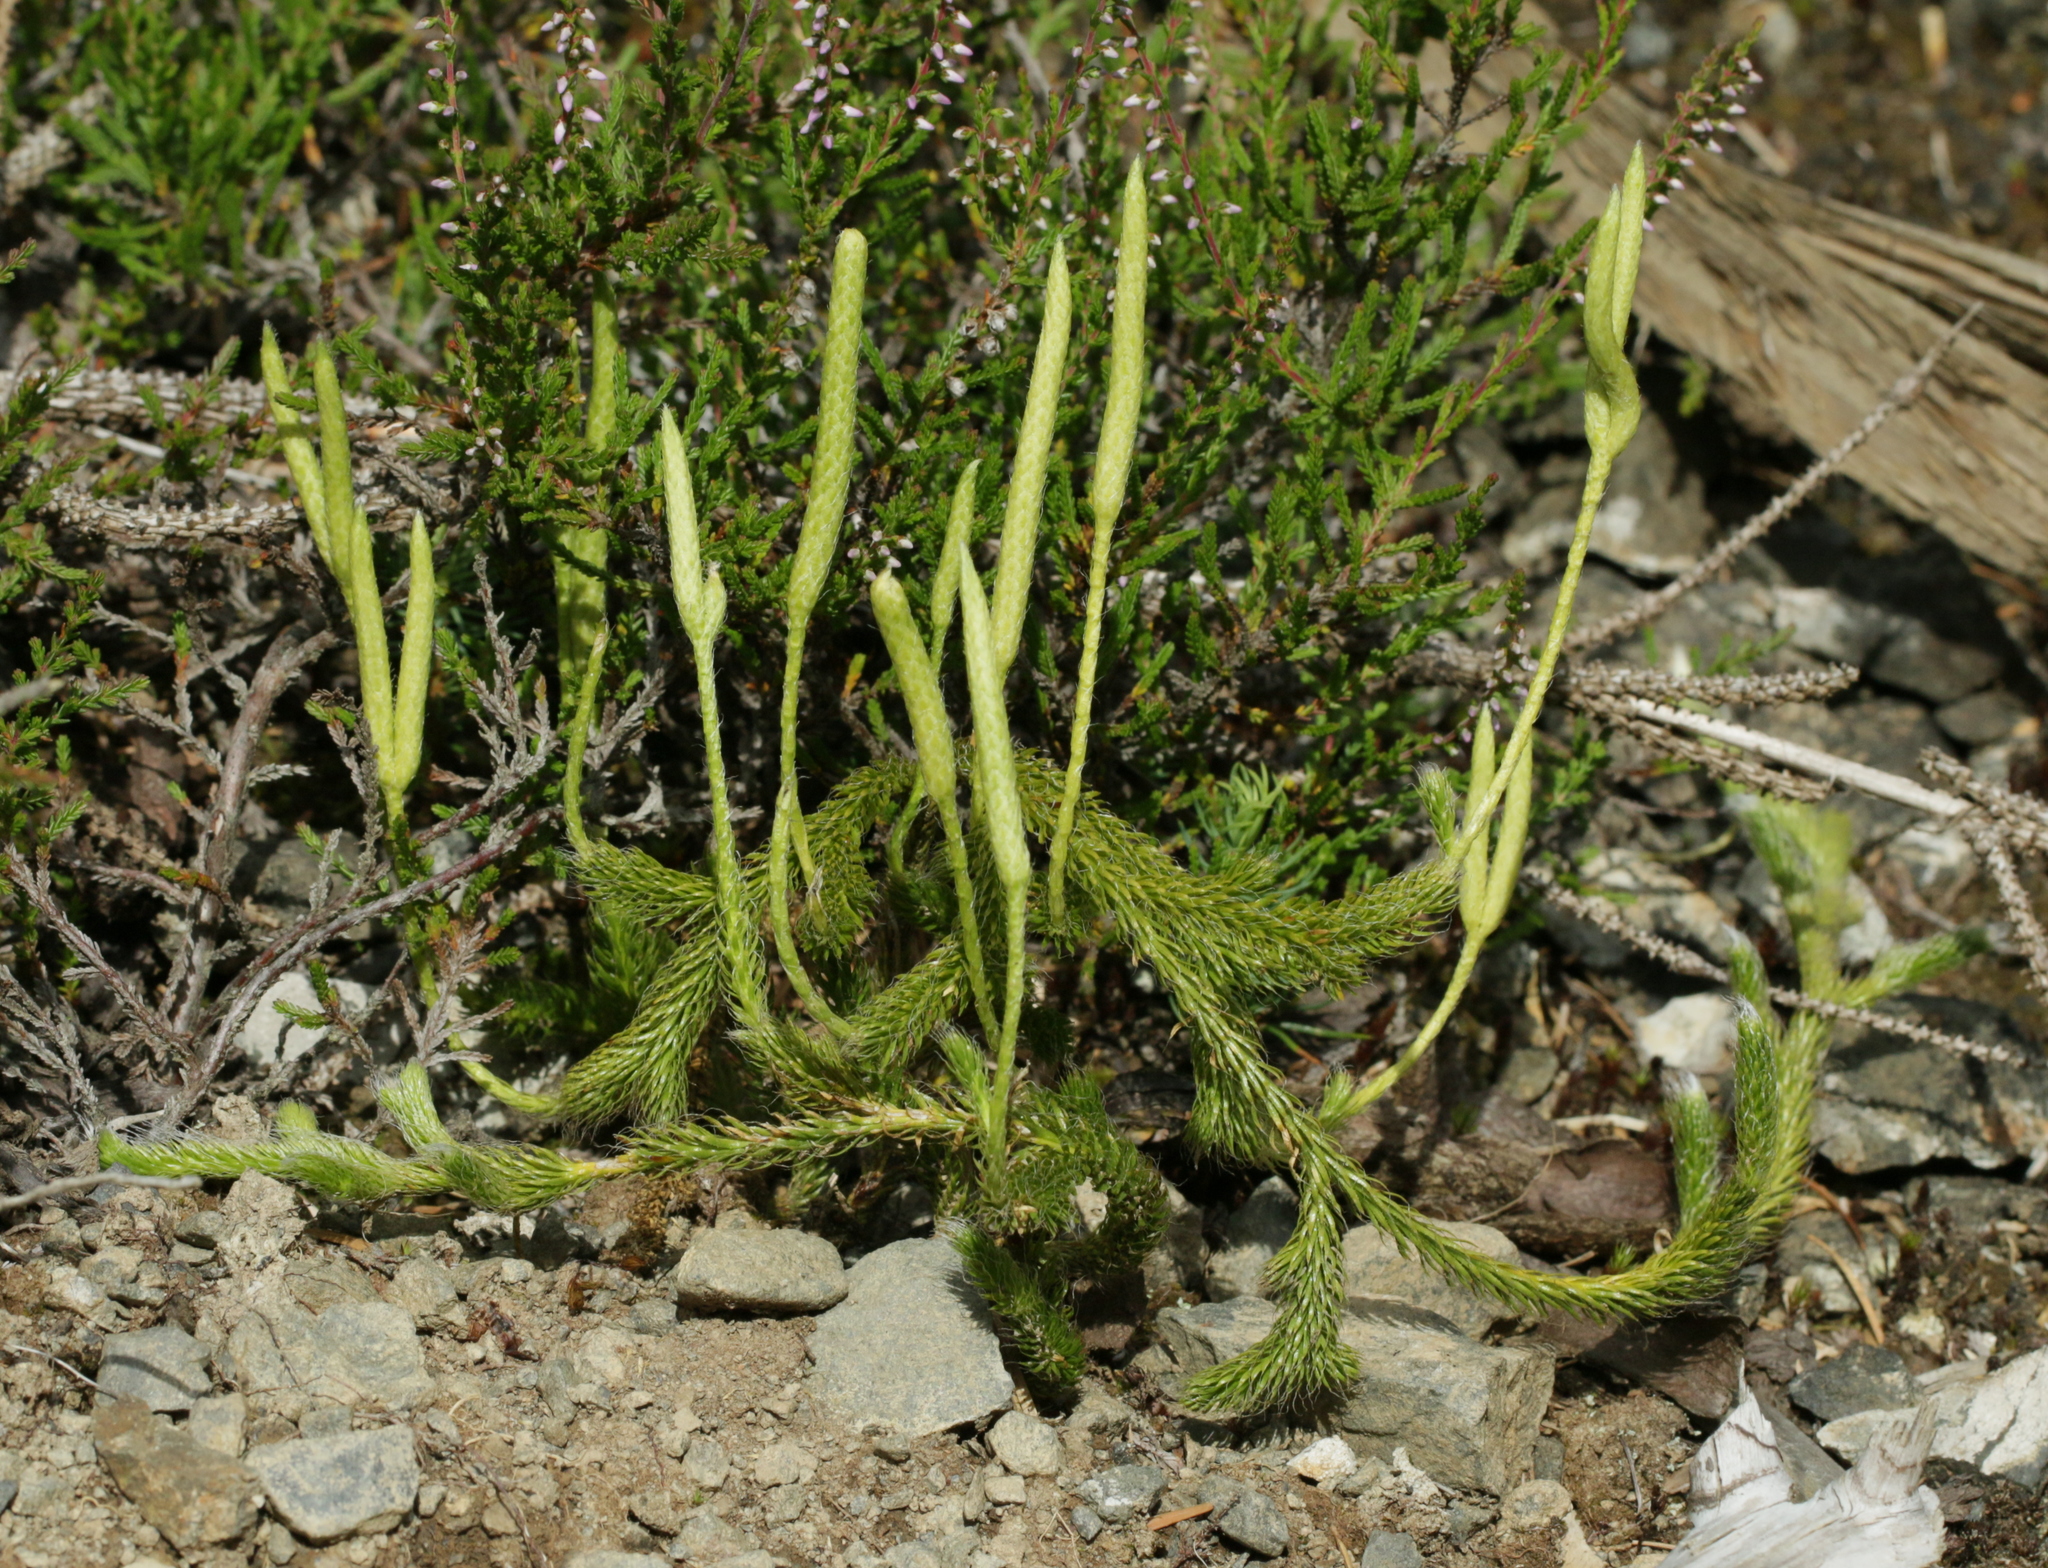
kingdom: Plantae
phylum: Tracheophyta
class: Lycopodiopsida
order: Lycopodiales
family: Lycopodiaceae
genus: Lycopodium
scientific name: Lycopodium clavatum
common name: Stag's-horn clubmoss
